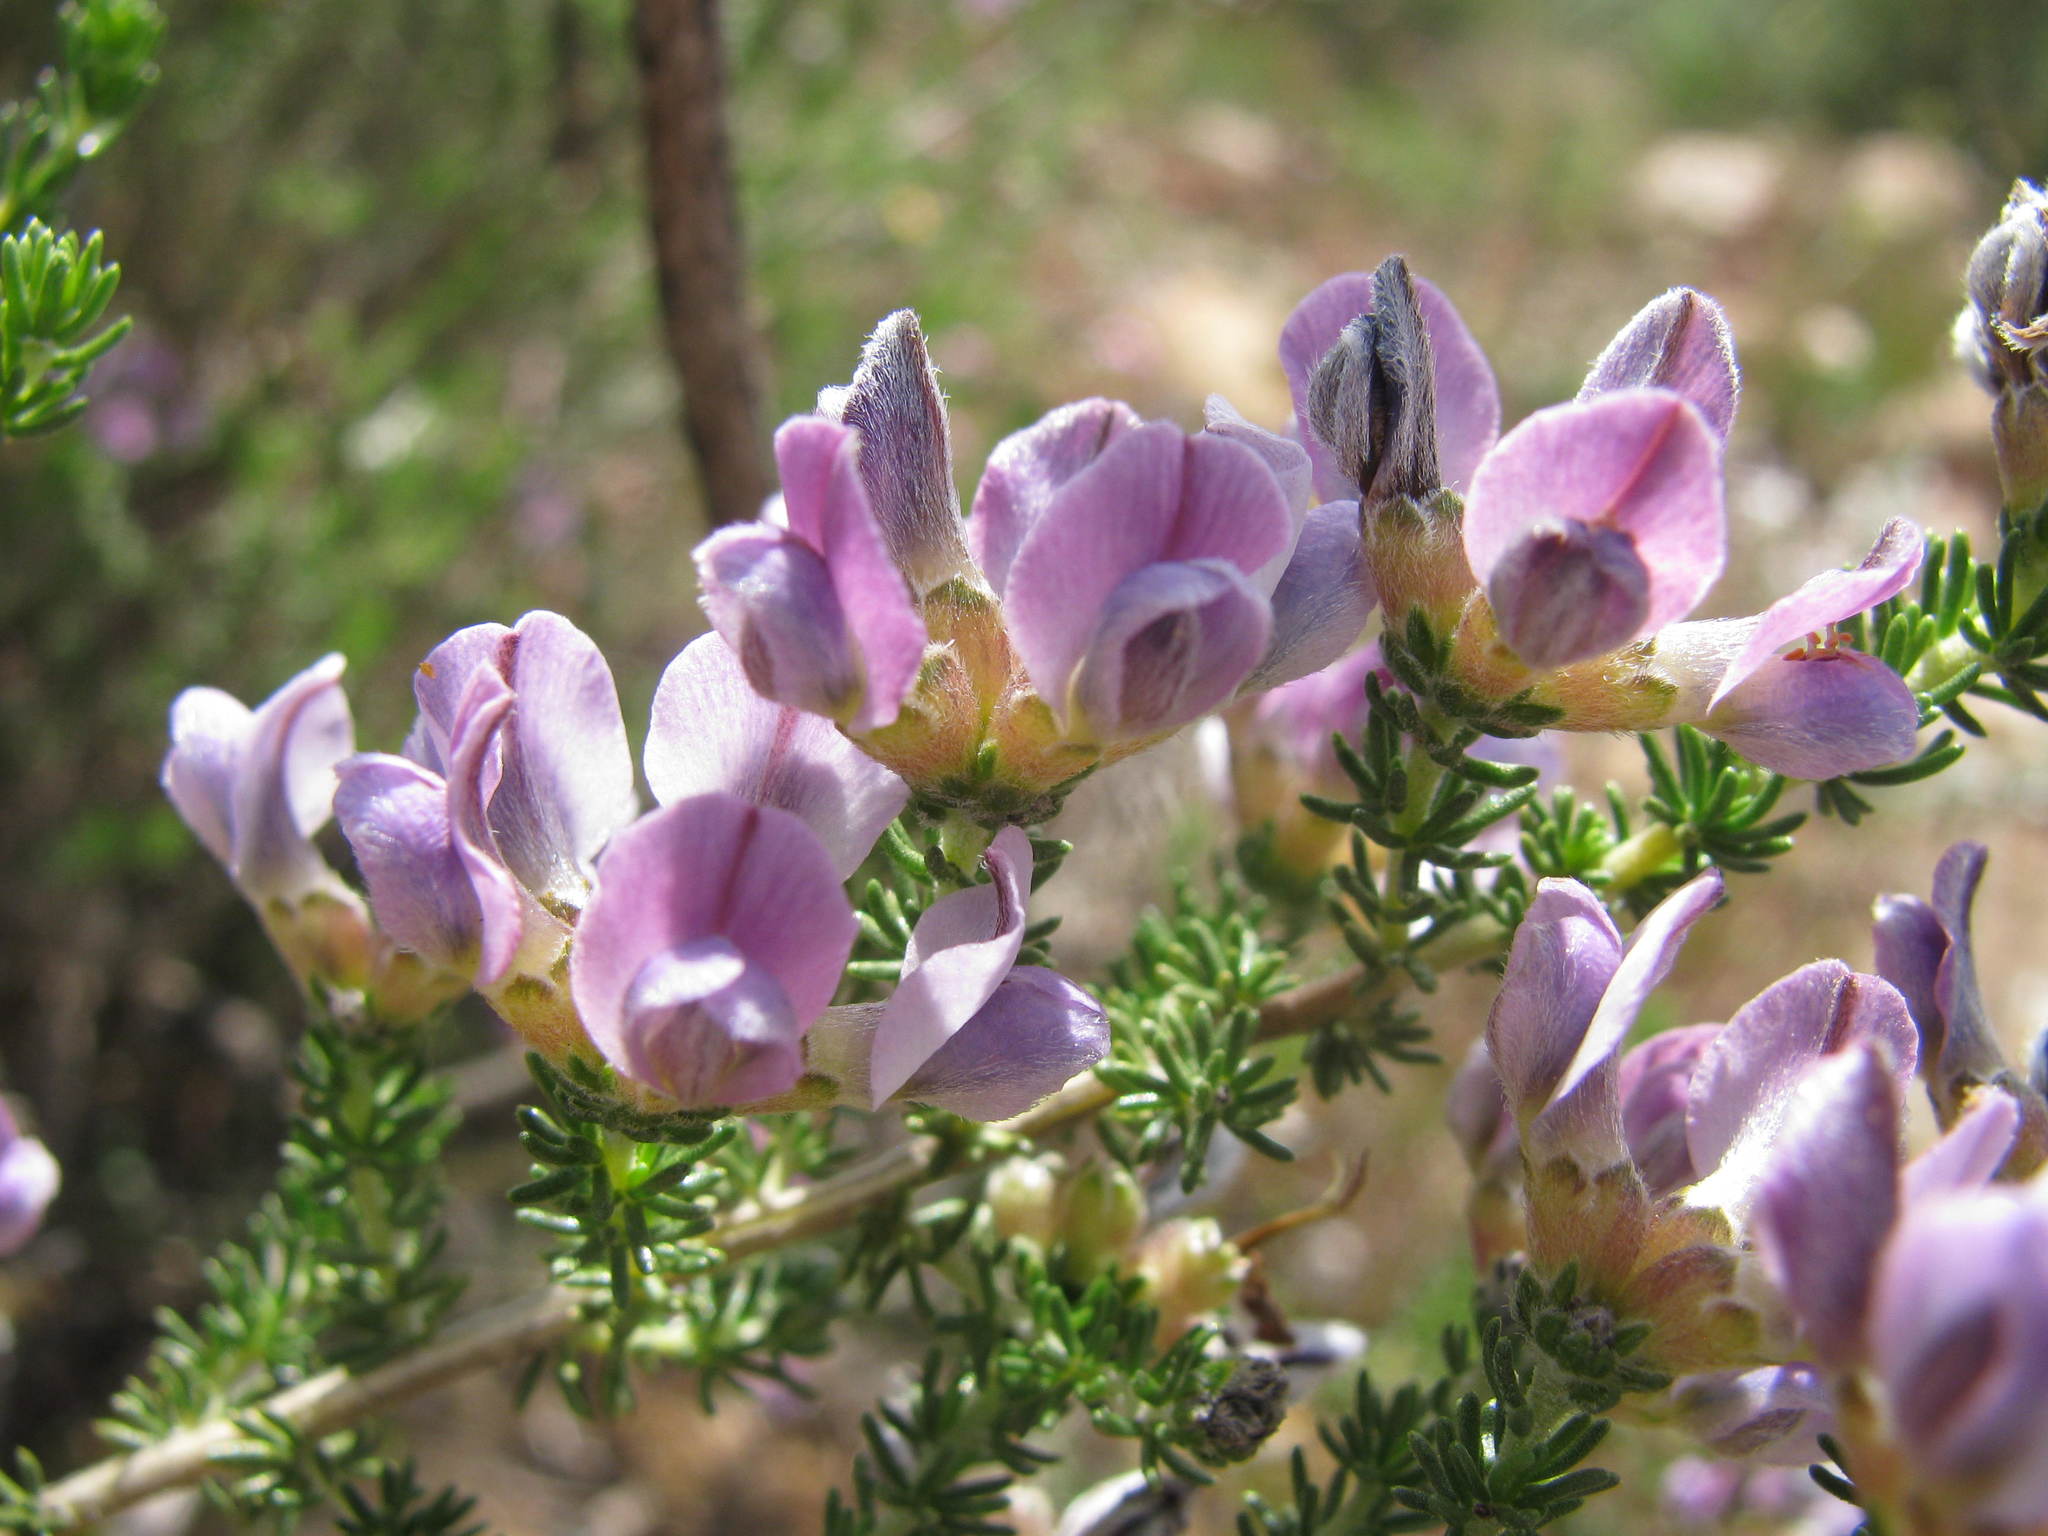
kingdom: Plantae
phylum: Tracheophyta
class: Magnoliopsida
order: Fabales
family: Fabaceae
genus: Aspalathus
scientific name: Aspalathus nigra
